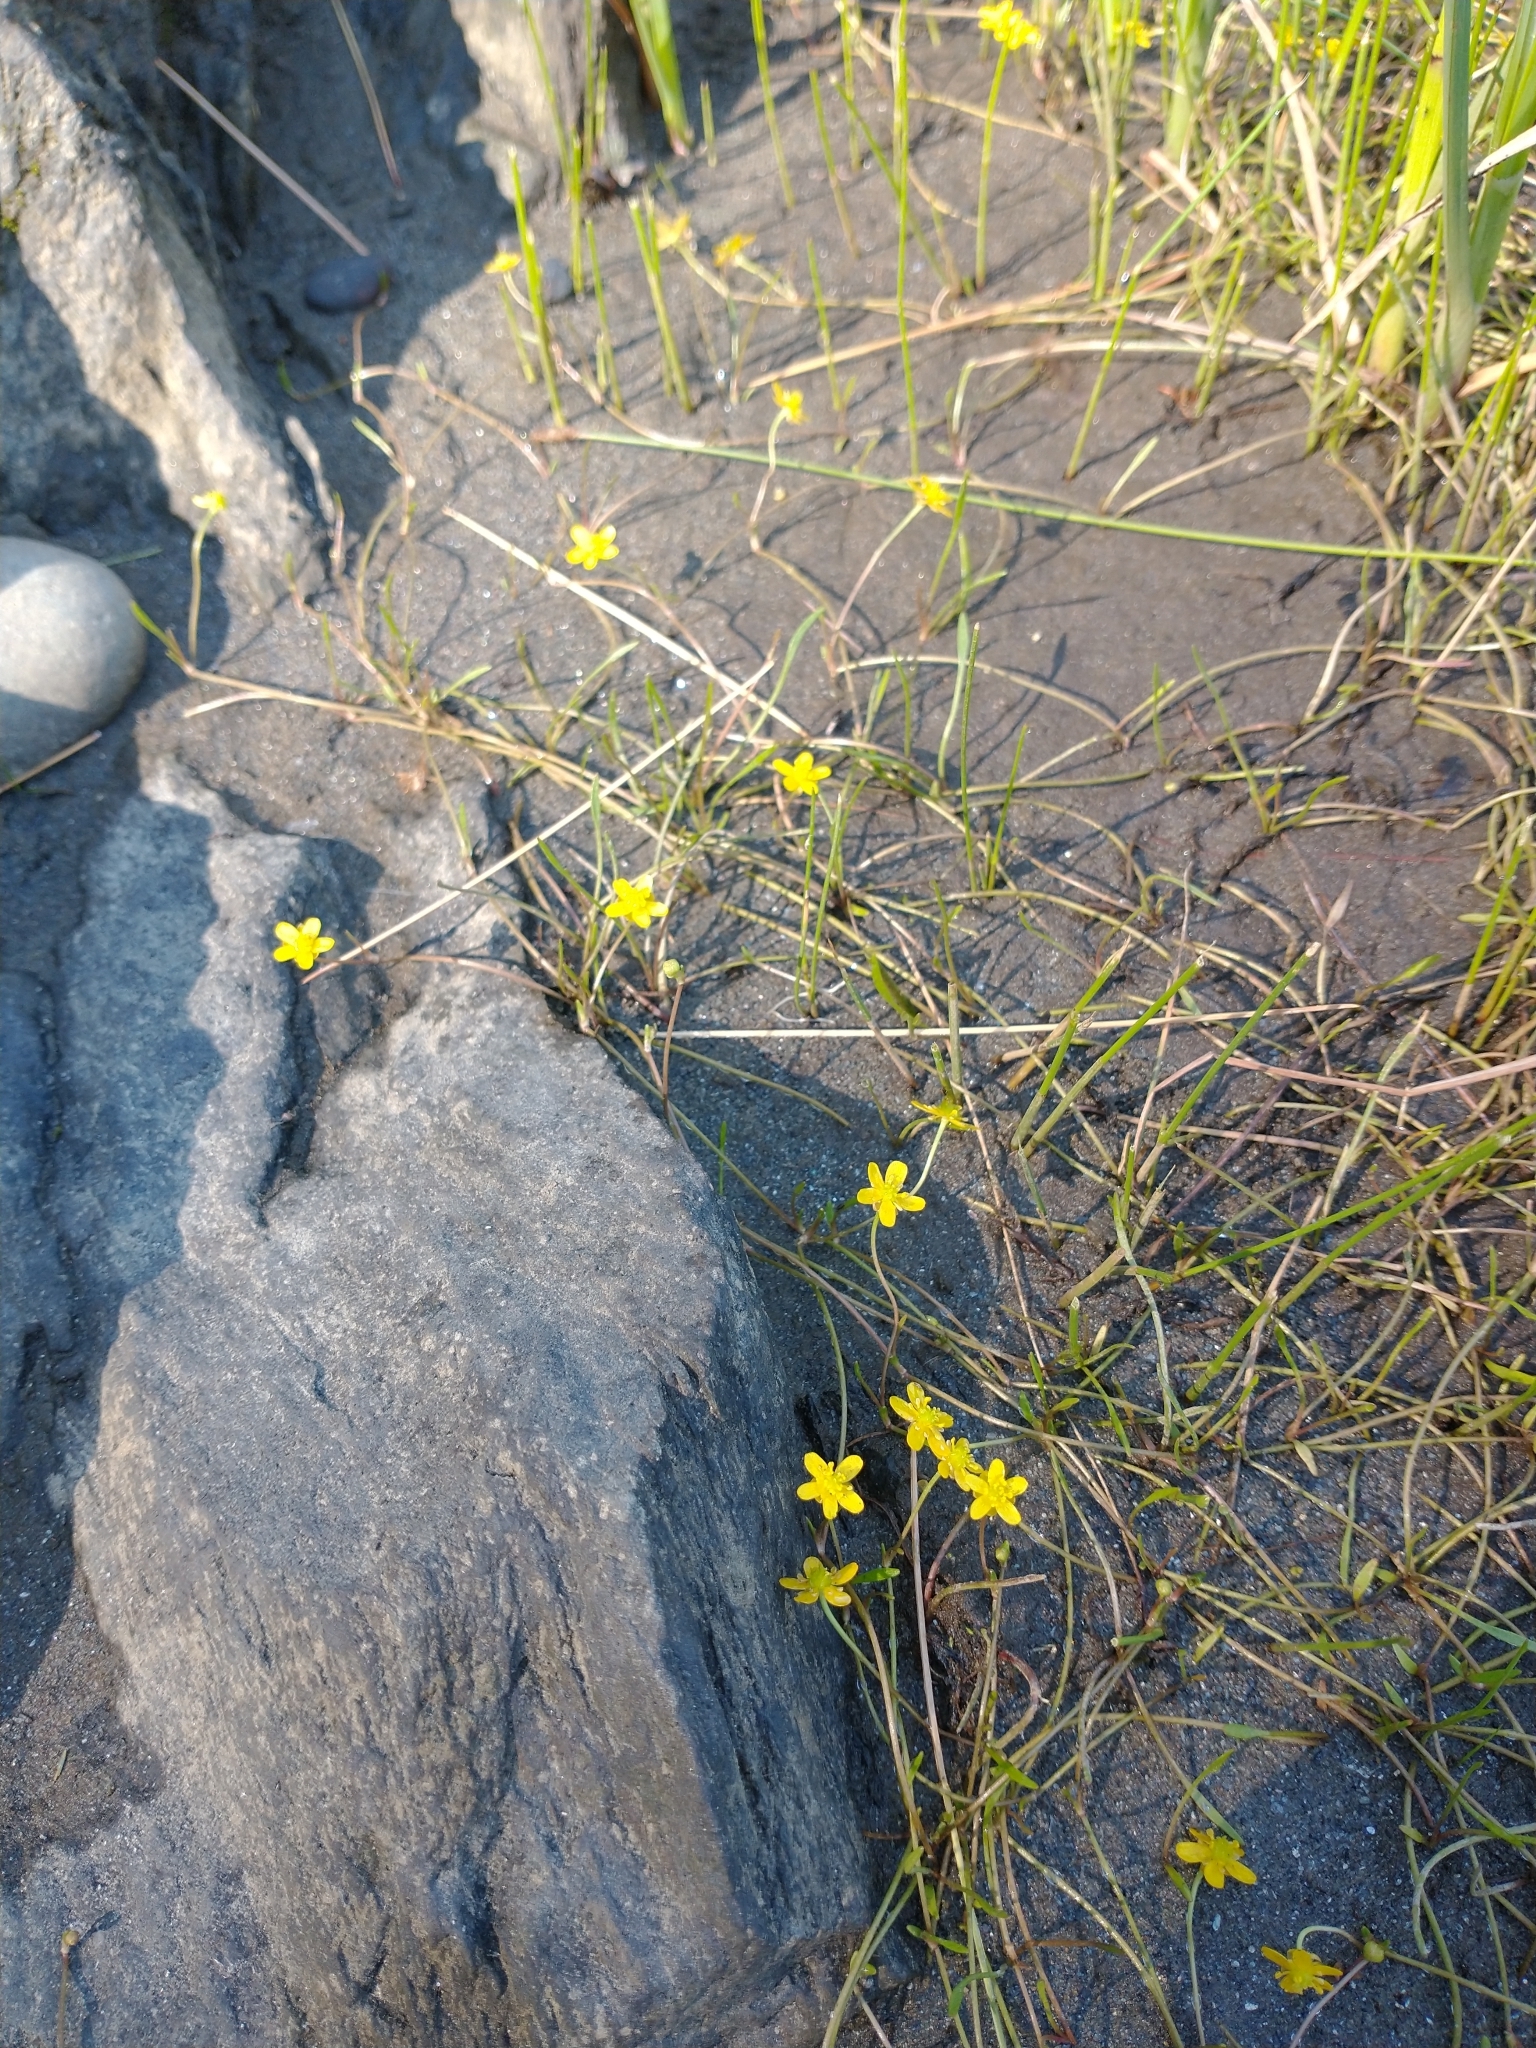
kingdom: Plantae
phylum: Tracheophyta
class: Magnoliopsida
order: Ranunculales
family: Ranunculaceae
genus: Ranunculus
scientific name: Ranunculus flammula
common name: Lesser spearwort
